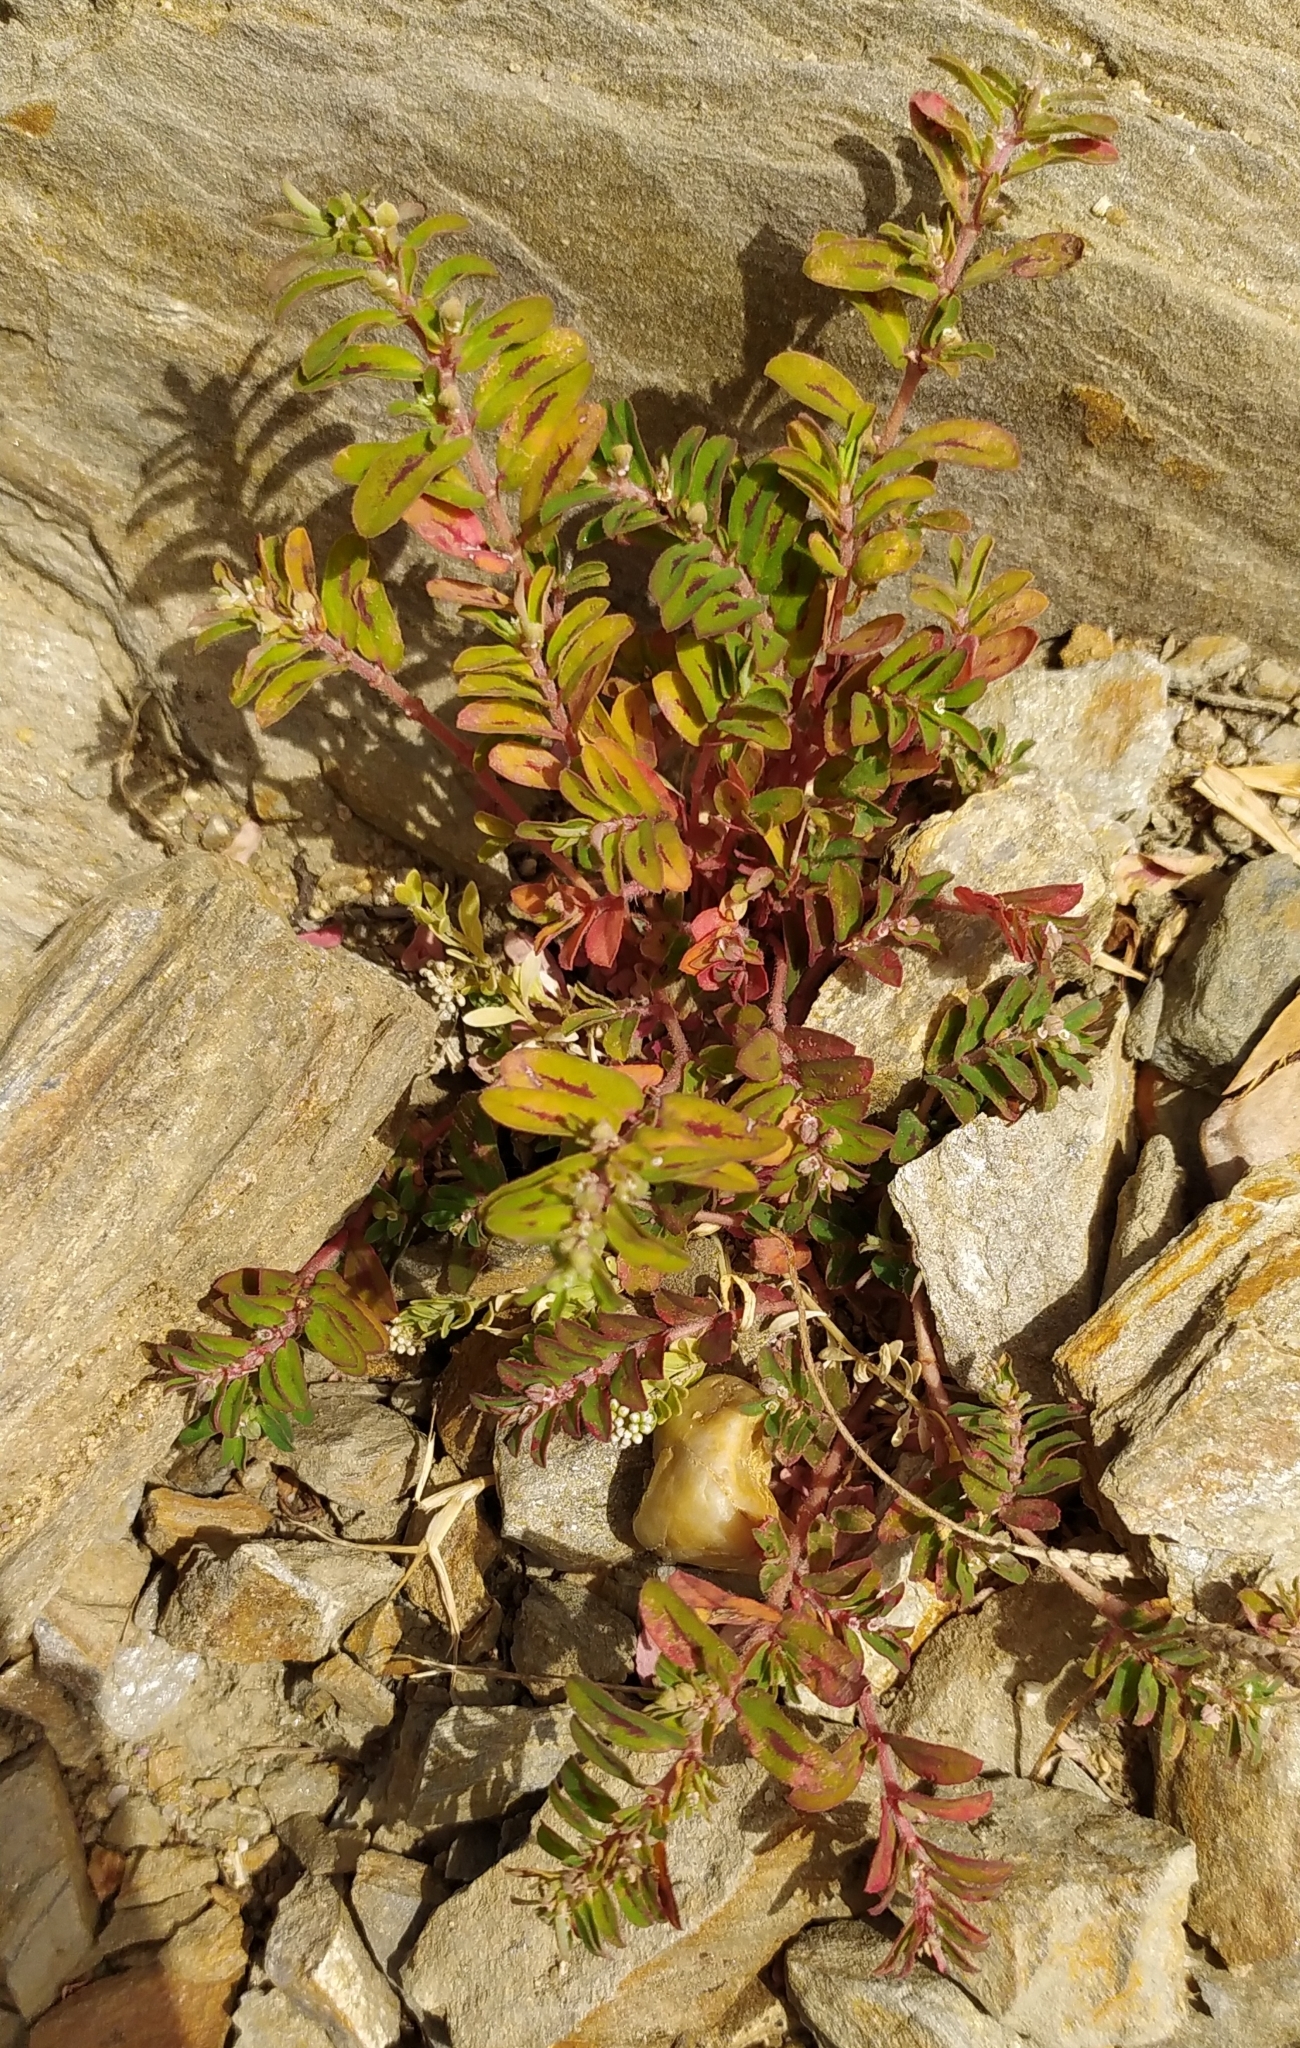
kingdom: Plantae
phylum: Tracheophyta
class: Magnoliopsida
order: Malpighiales
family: Euphorbiaceae
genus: Euphorbia
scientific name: Euphorbia maculata
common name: Spotted spurge
